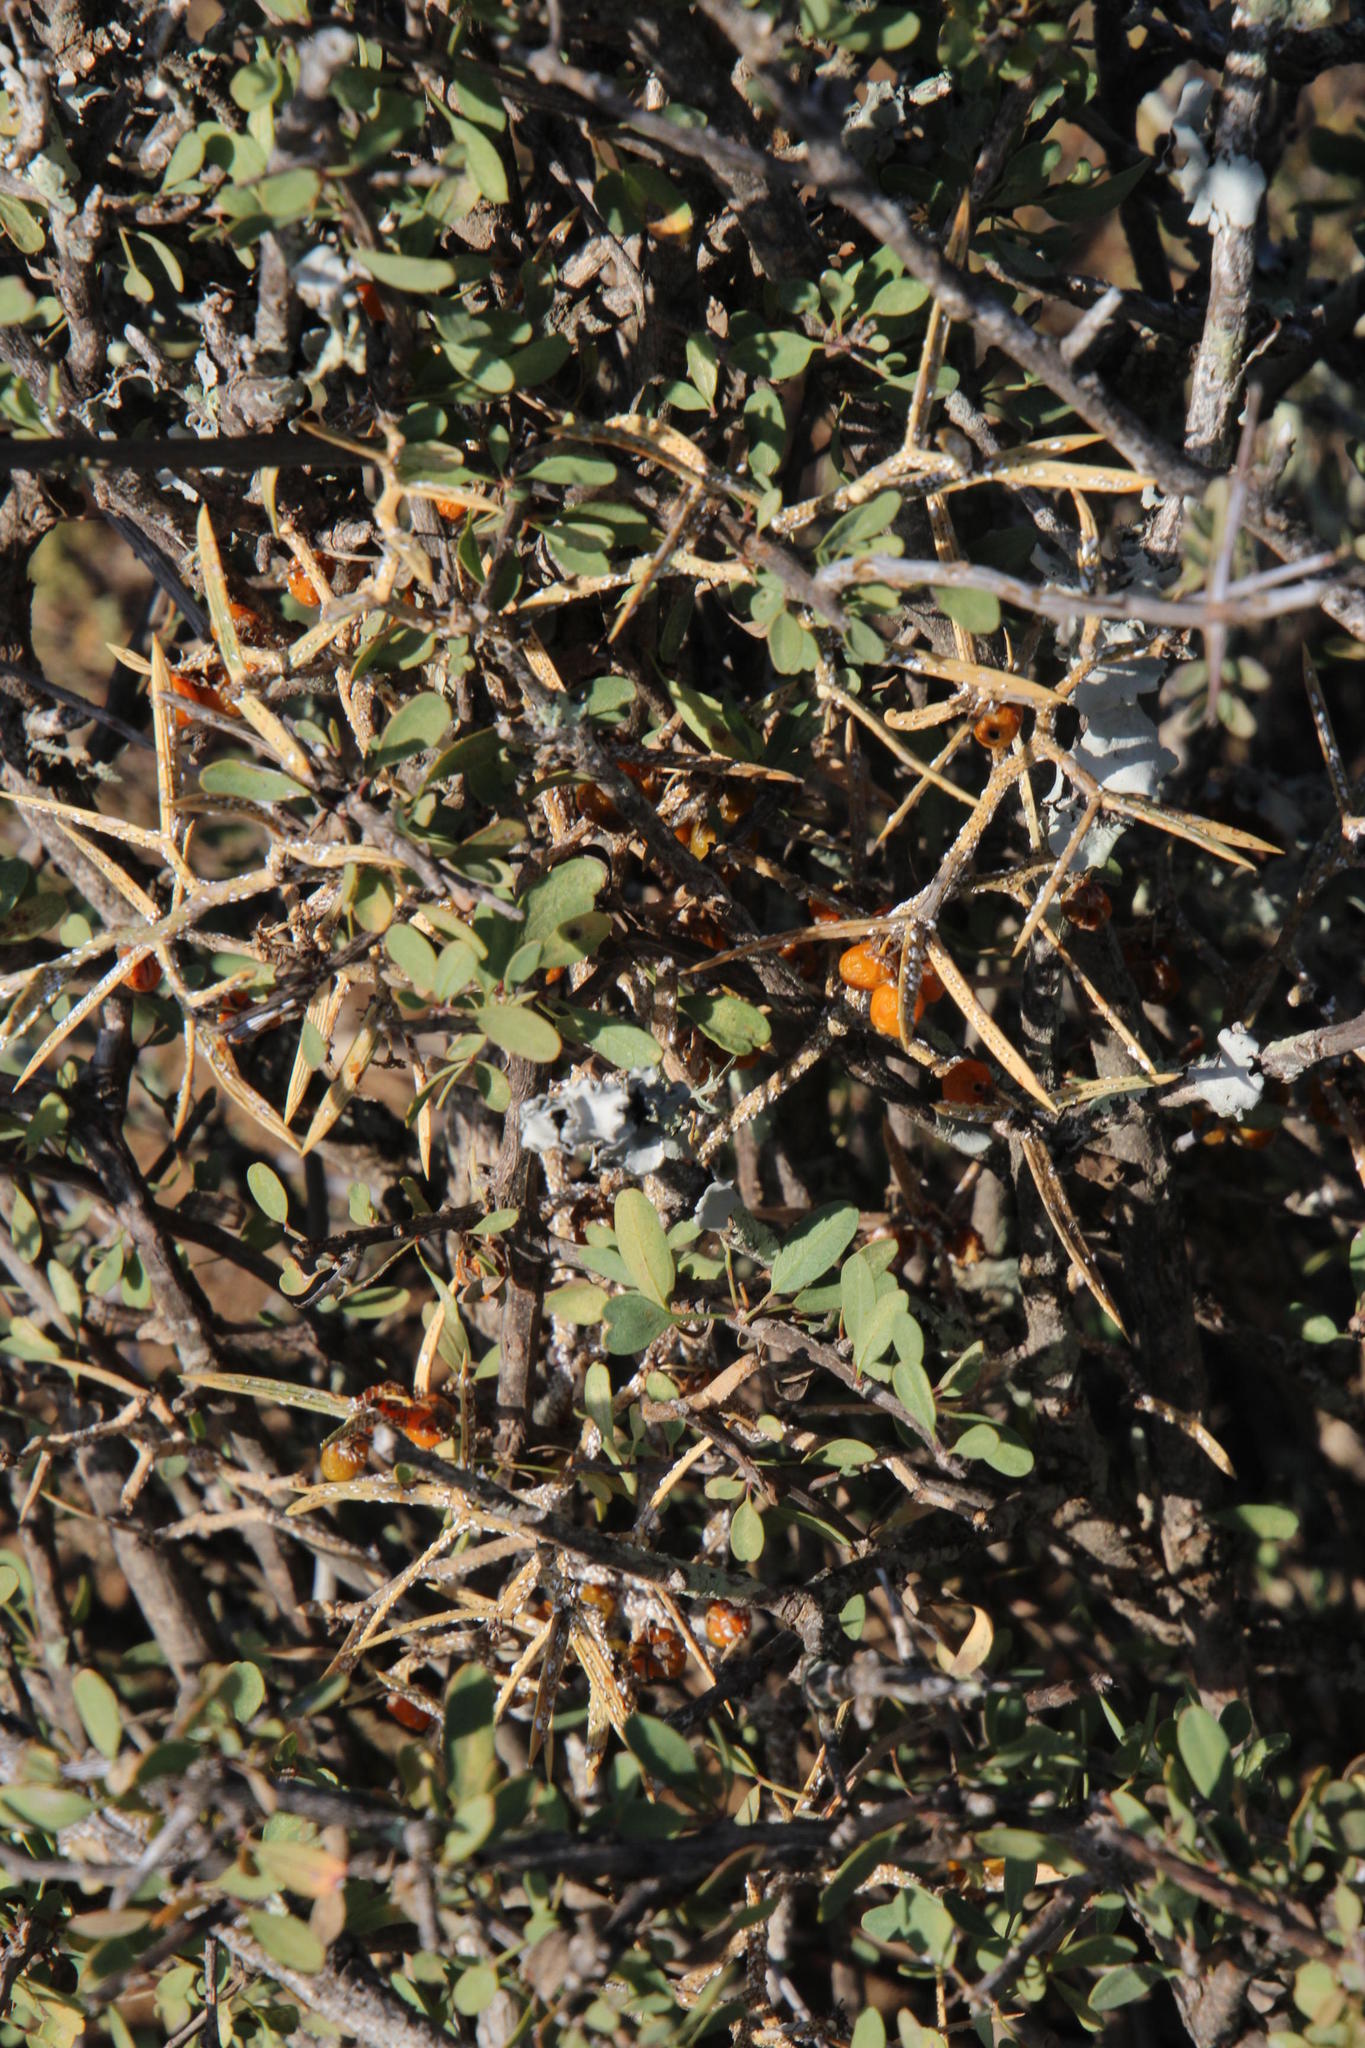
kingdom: Plantae
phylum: Tracheophyta
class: Liliopsida
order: Asparagales
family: Asparagaceae
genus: Asparagus
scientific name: Asparagus striatus
